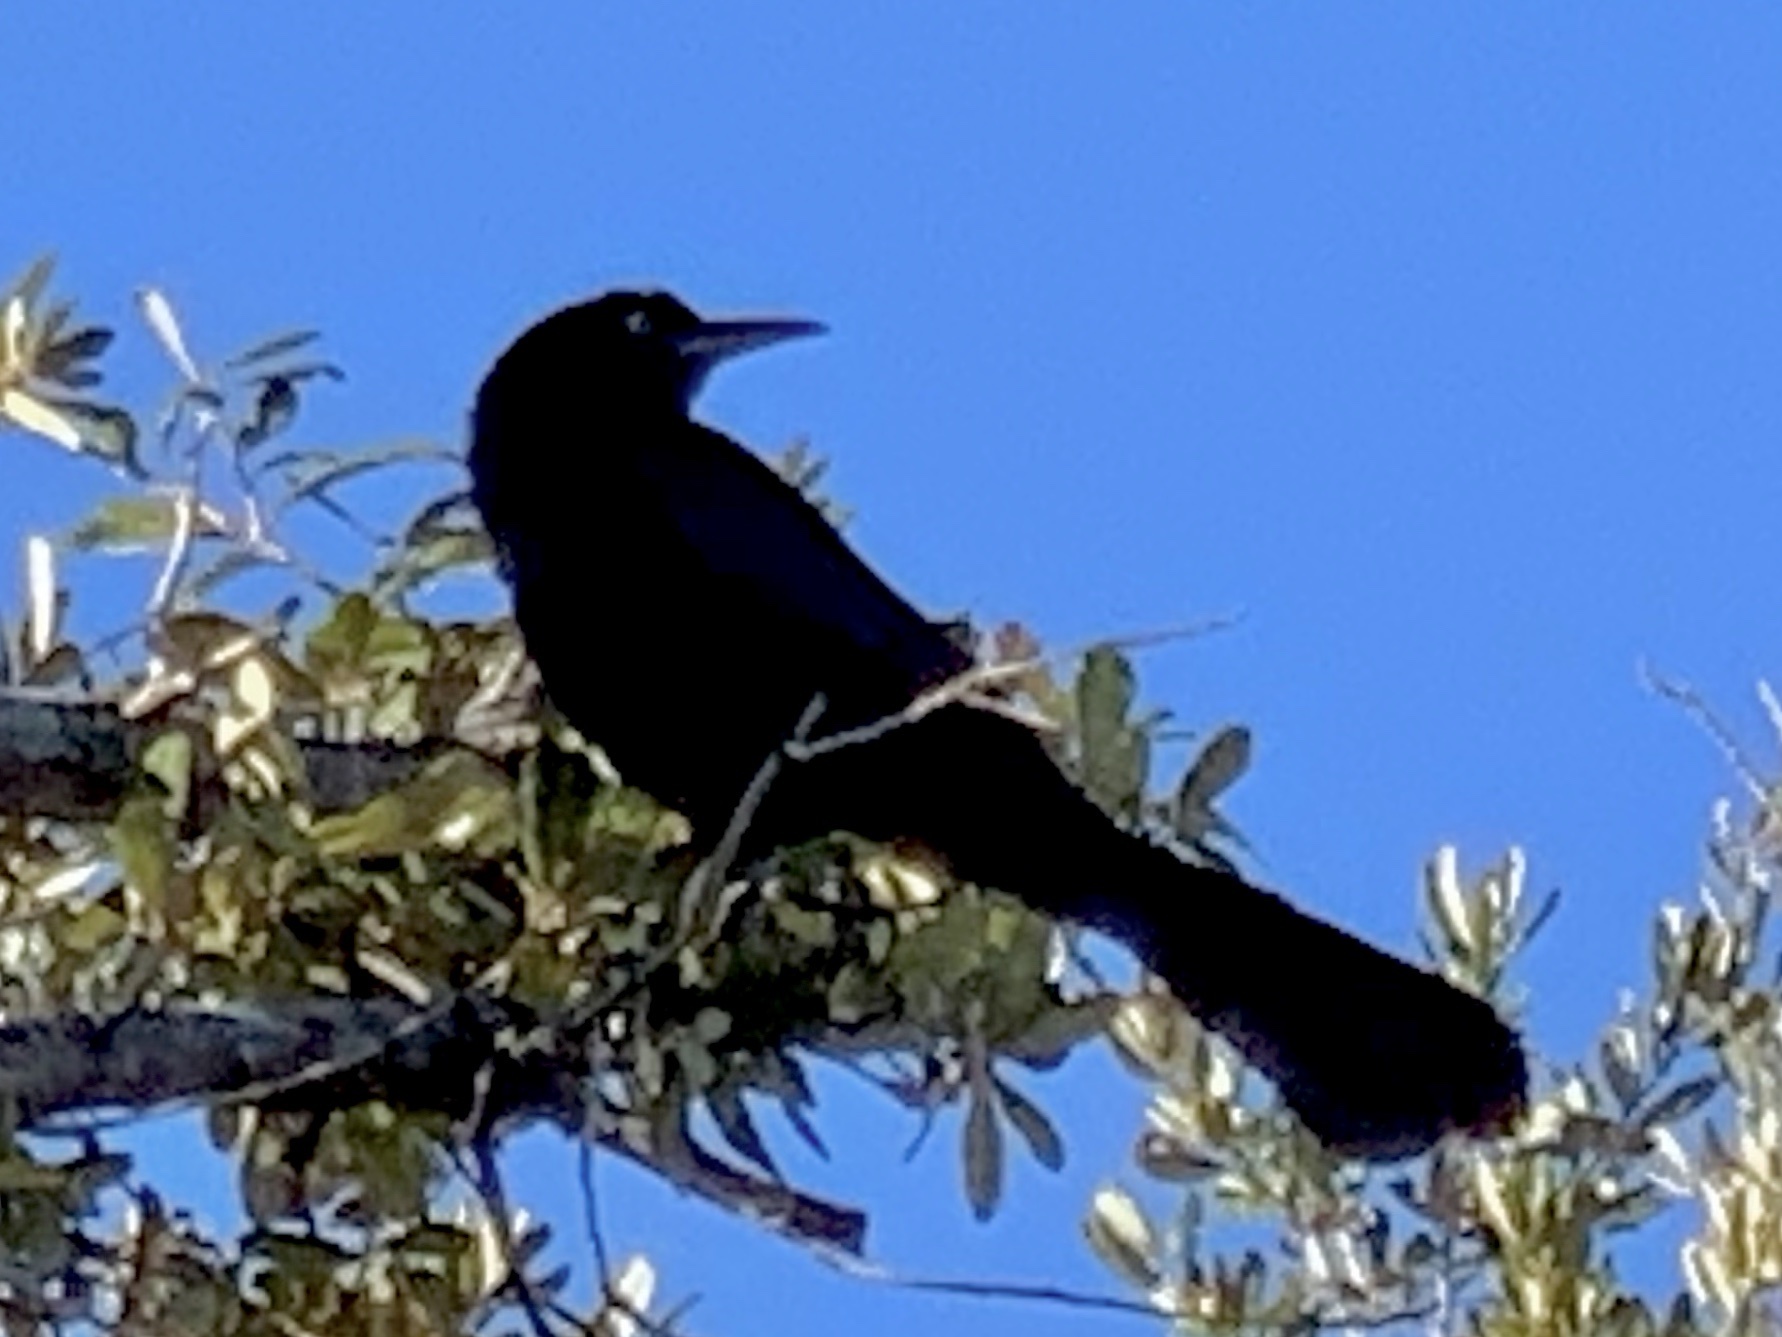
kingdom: Animalia
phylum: Chordata
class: Aves
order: Passeriformes
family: Icteridae
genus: Quiscalus
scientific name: Quiscalus mexicanus
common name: Great-tailed grackle
